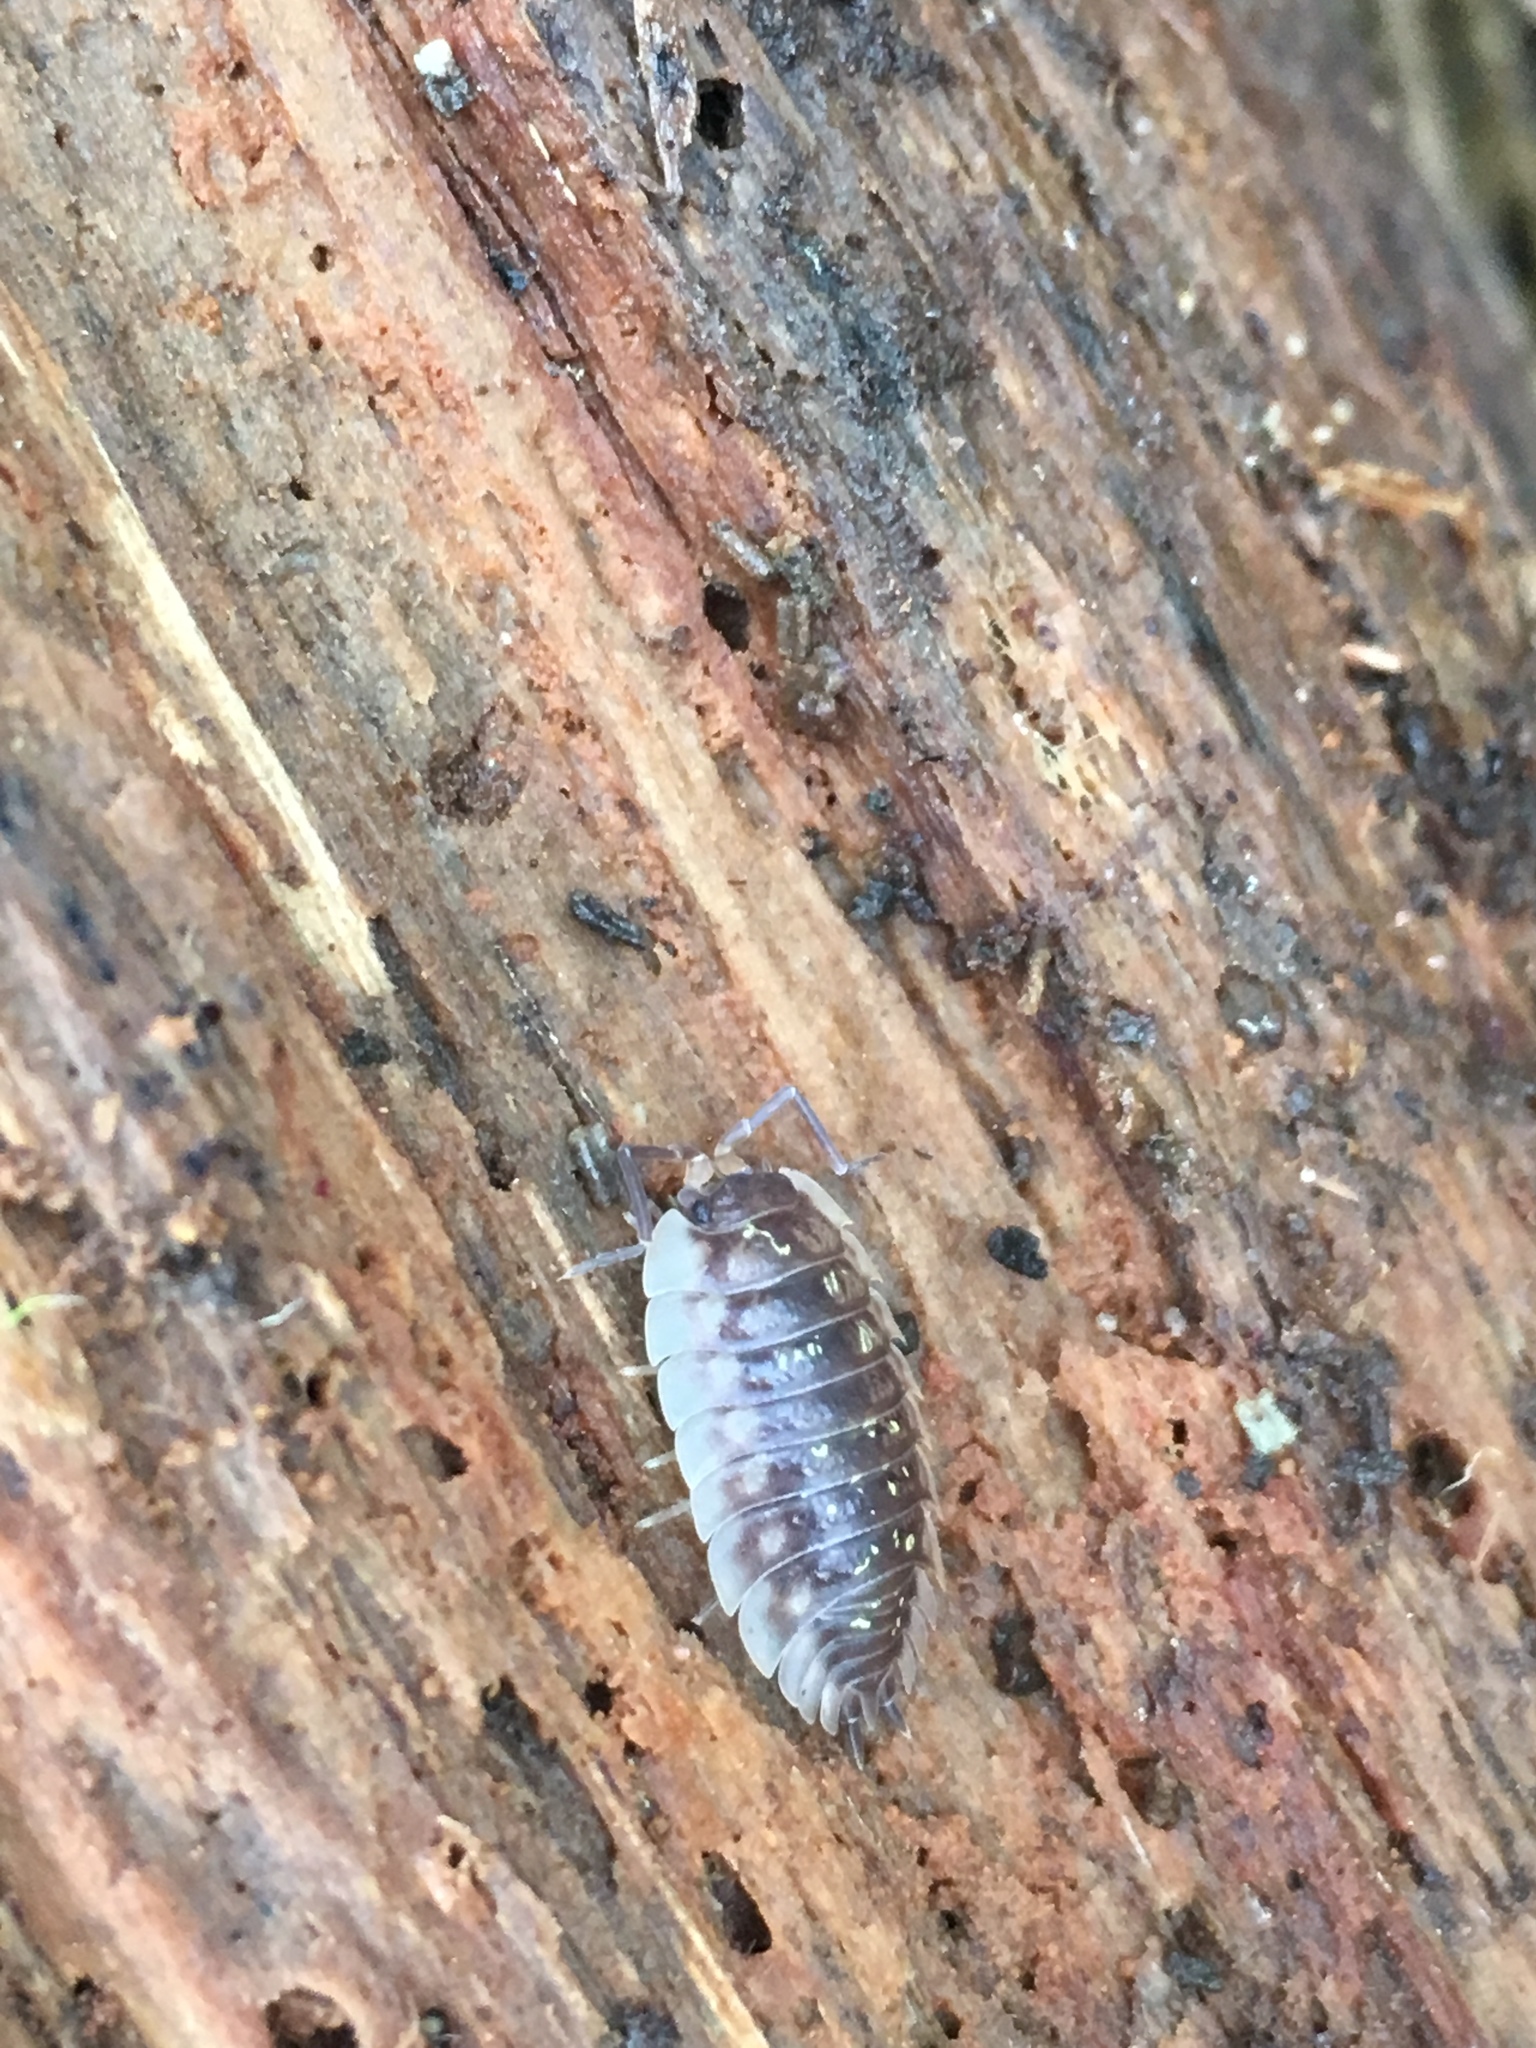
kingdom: Animalia
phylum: Arthropoda
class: Malacostraca
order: Isopoda
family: Oniscidae
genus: Oniscus
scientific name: Oniscus asellus
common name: Common shiny woodlouse
